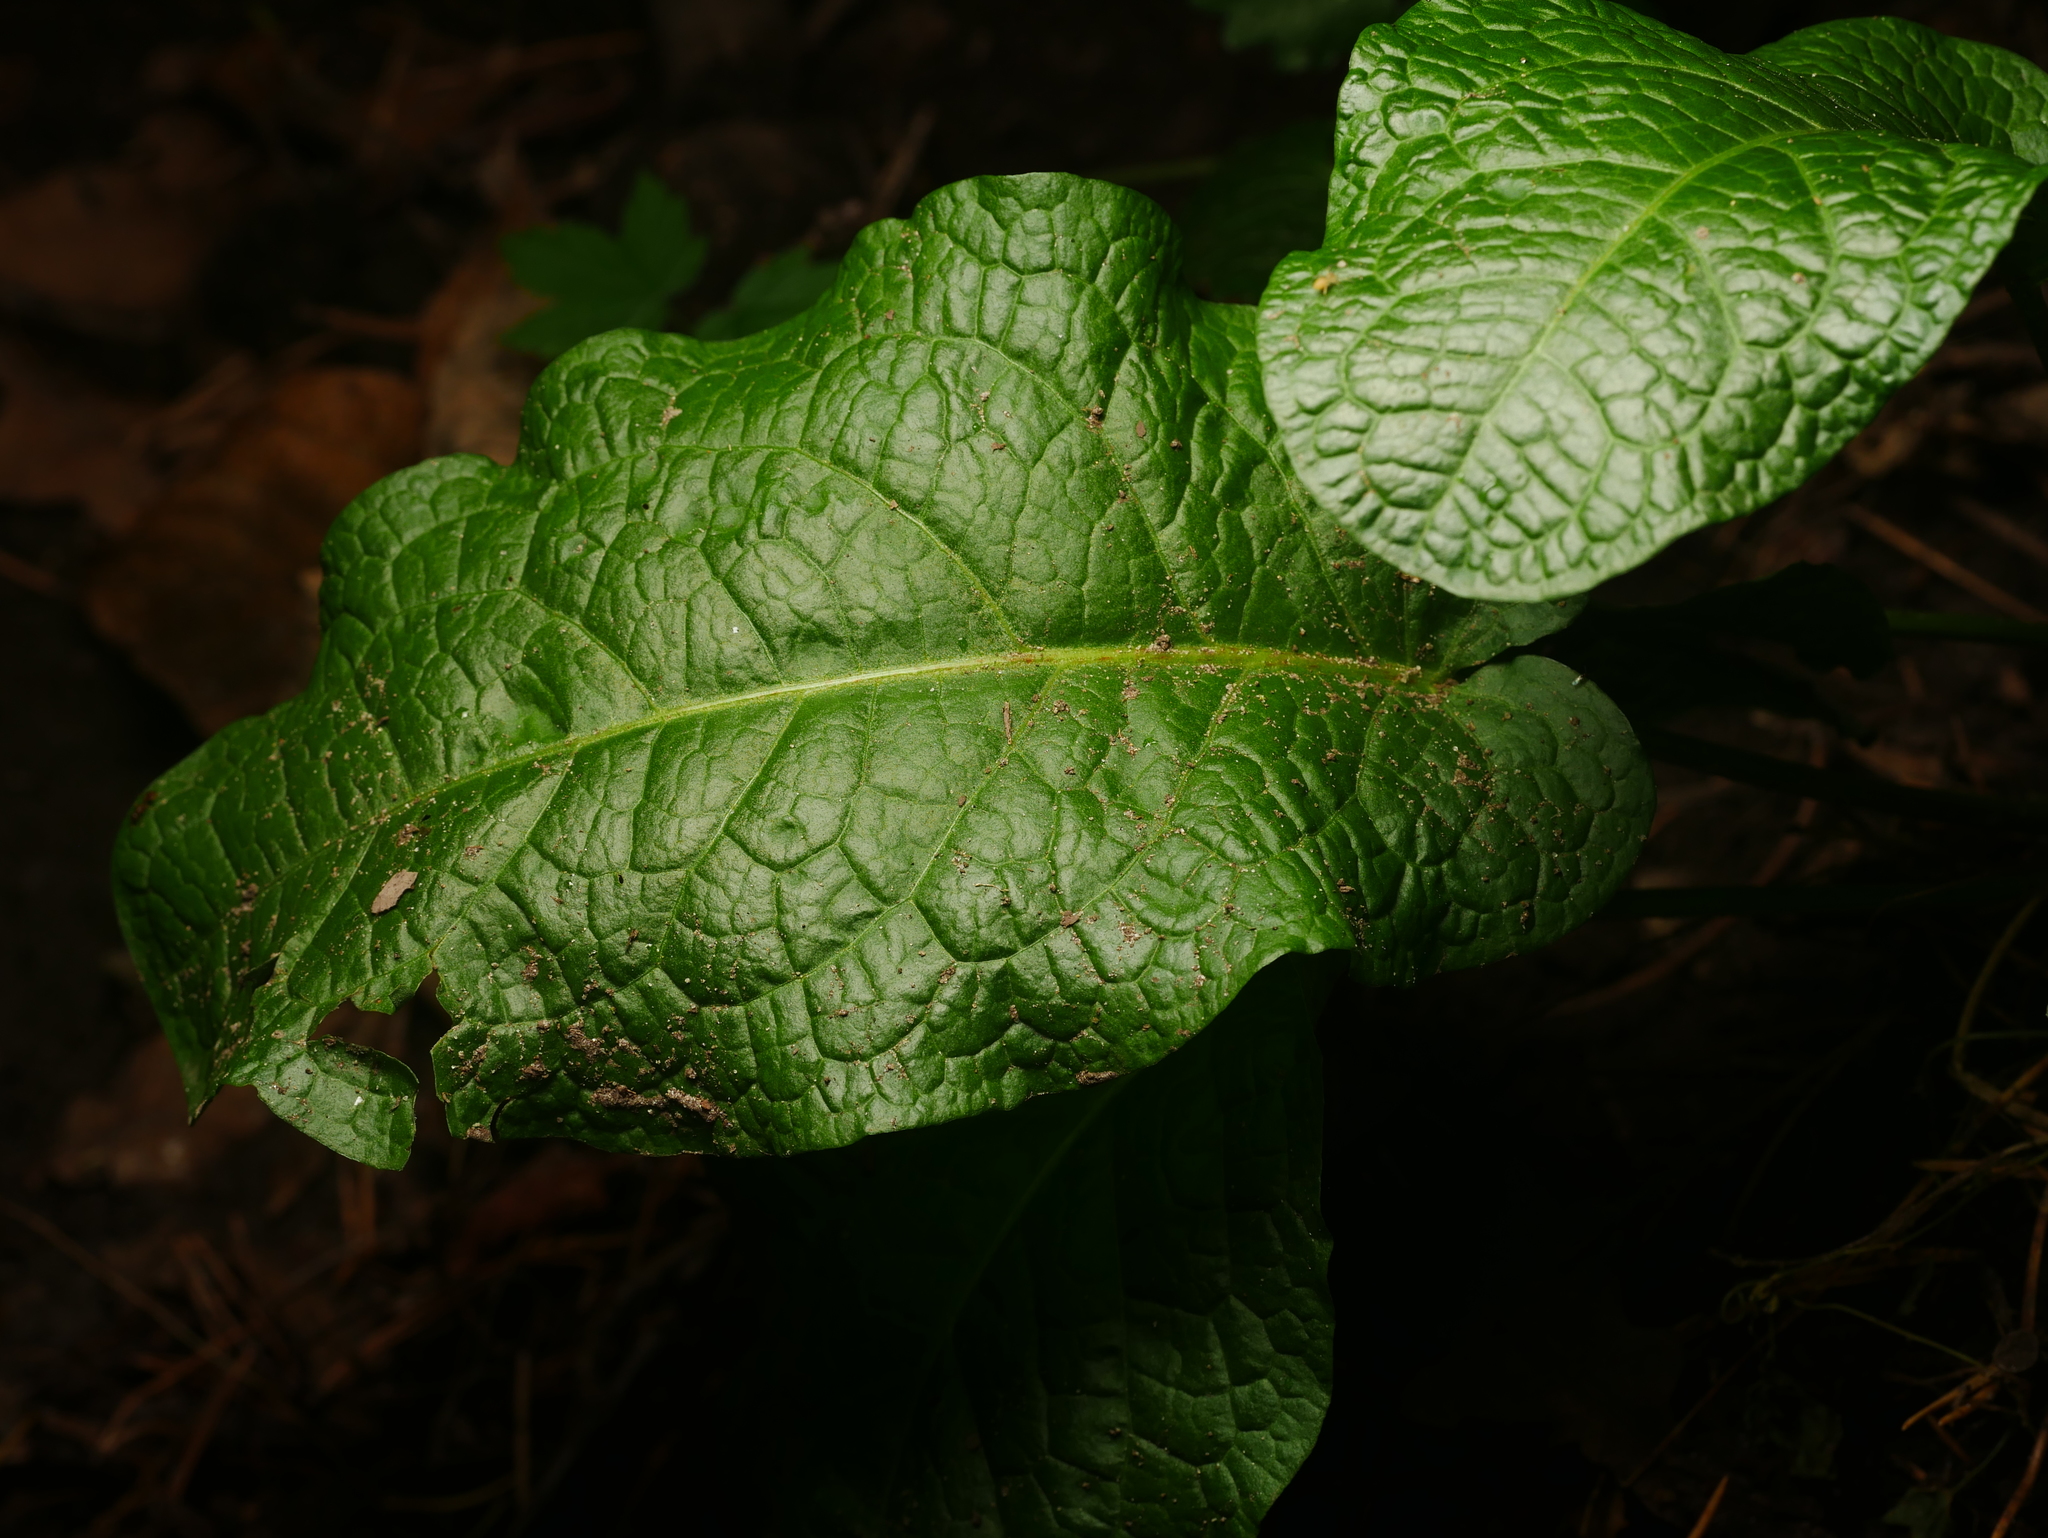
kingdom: Plantae
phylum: Tracheophyta
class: Magnoliopsida
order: Caryophyllales
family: Polygonaceae
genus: Rumex
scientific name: Rumex obtusifolius
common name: Bitter dock
